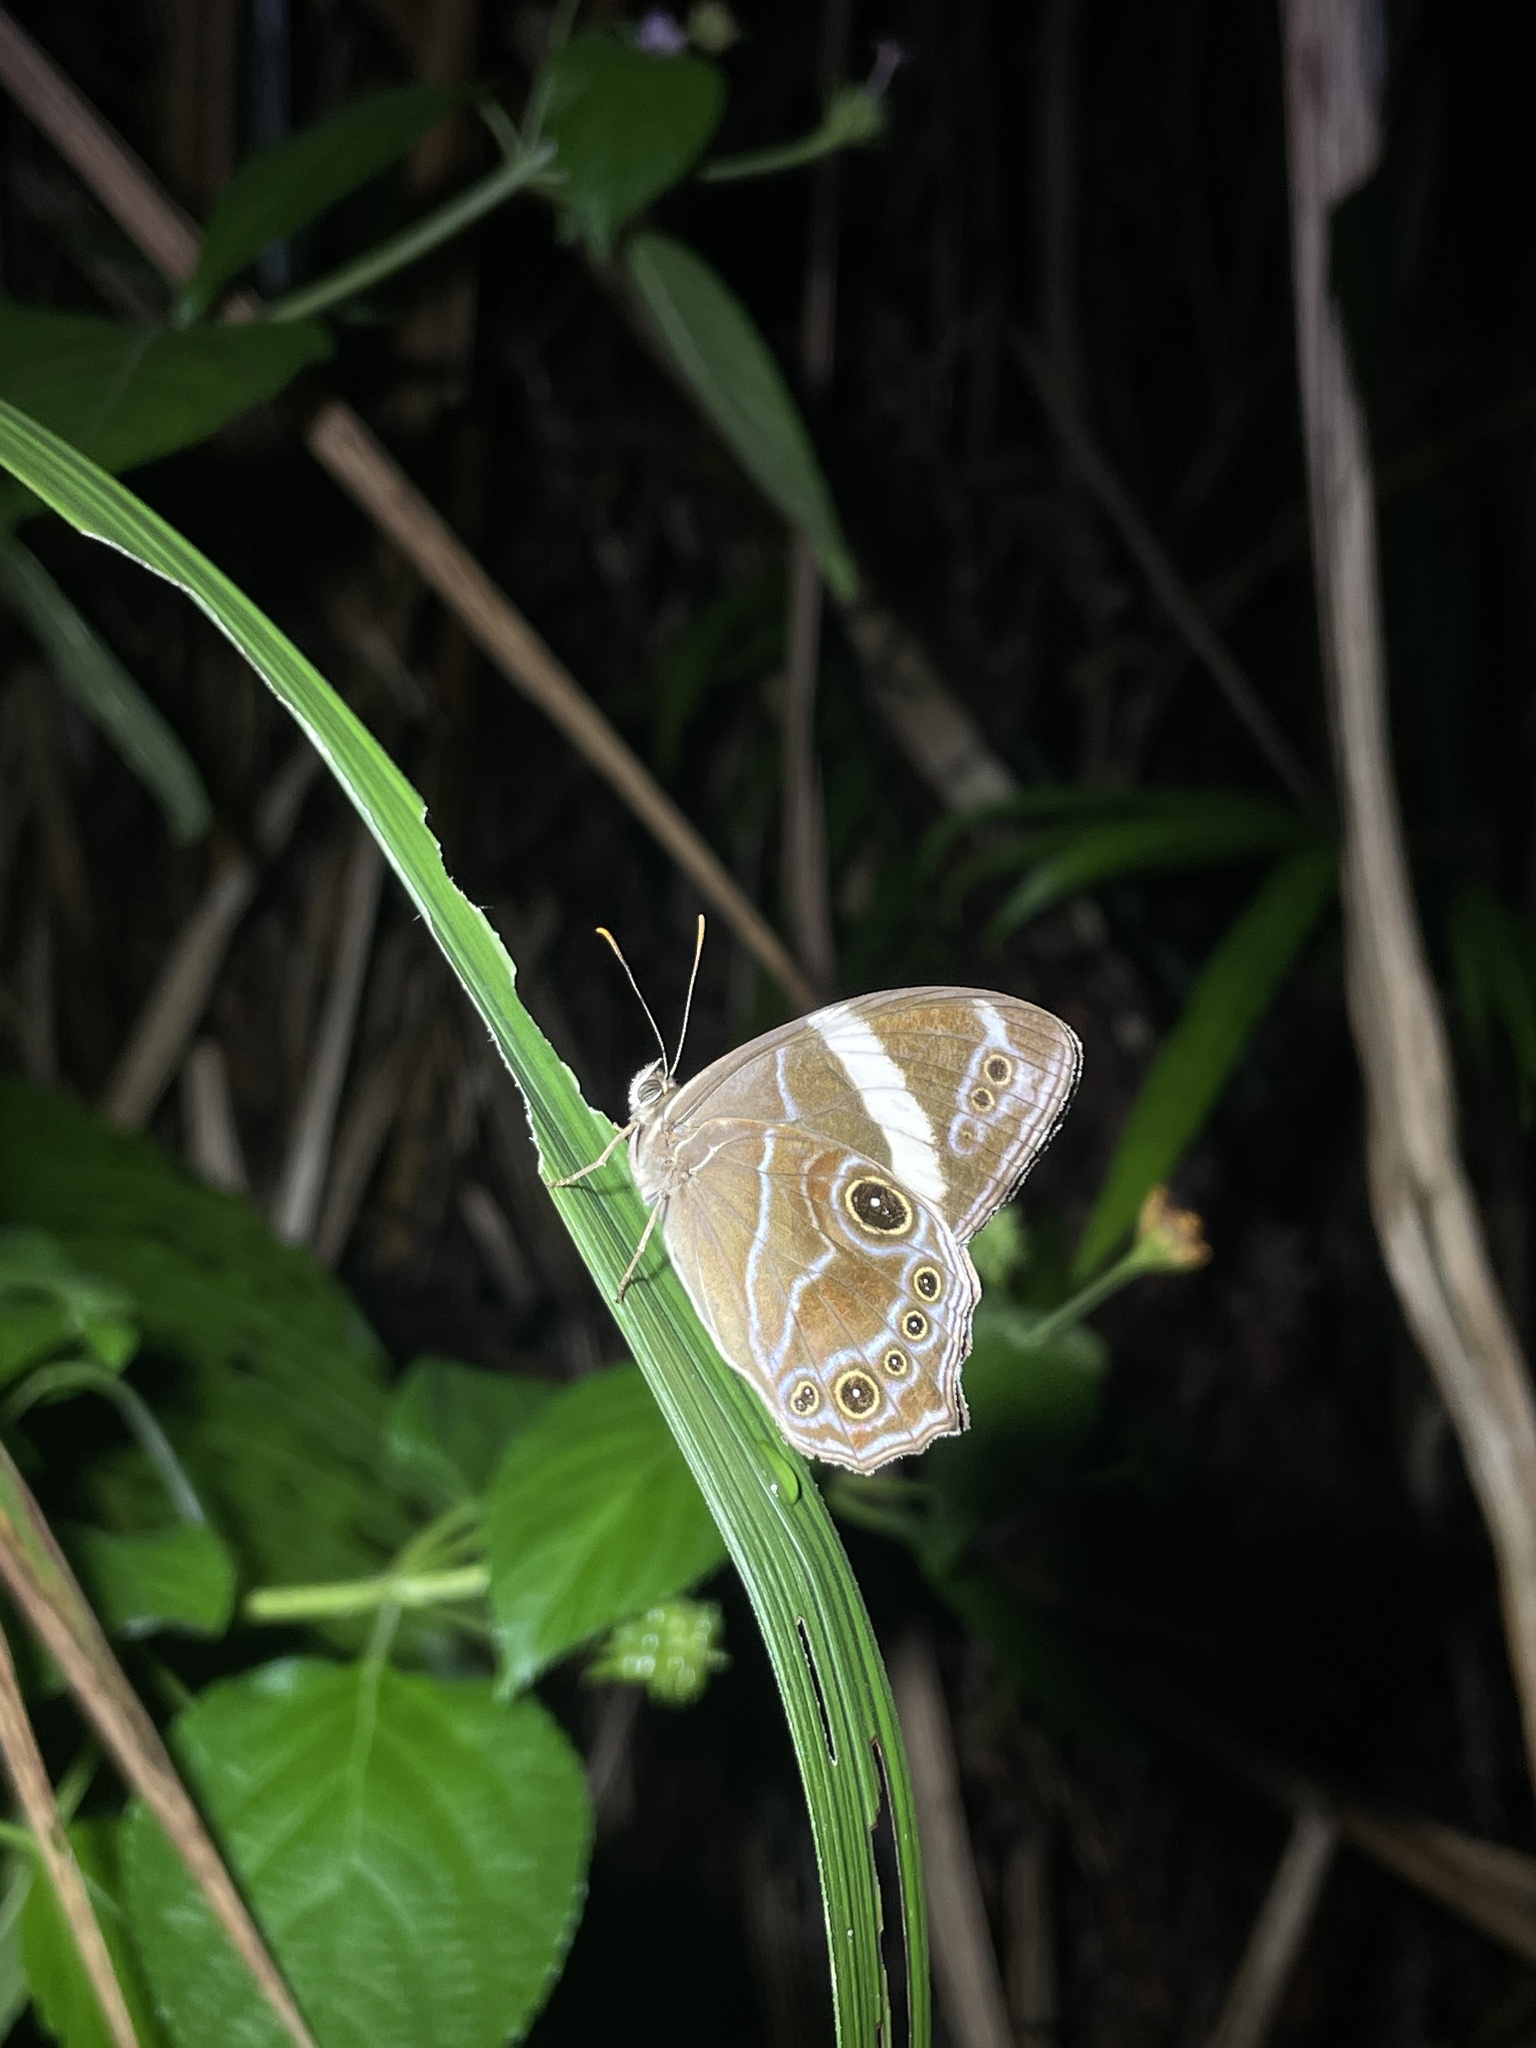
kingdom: Animalia
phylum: Arthropoda
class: Insecta
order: Lepidoptera
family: Nymphalidae
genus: Lethe
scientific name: Lethe confusa
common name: Banded treebrown
